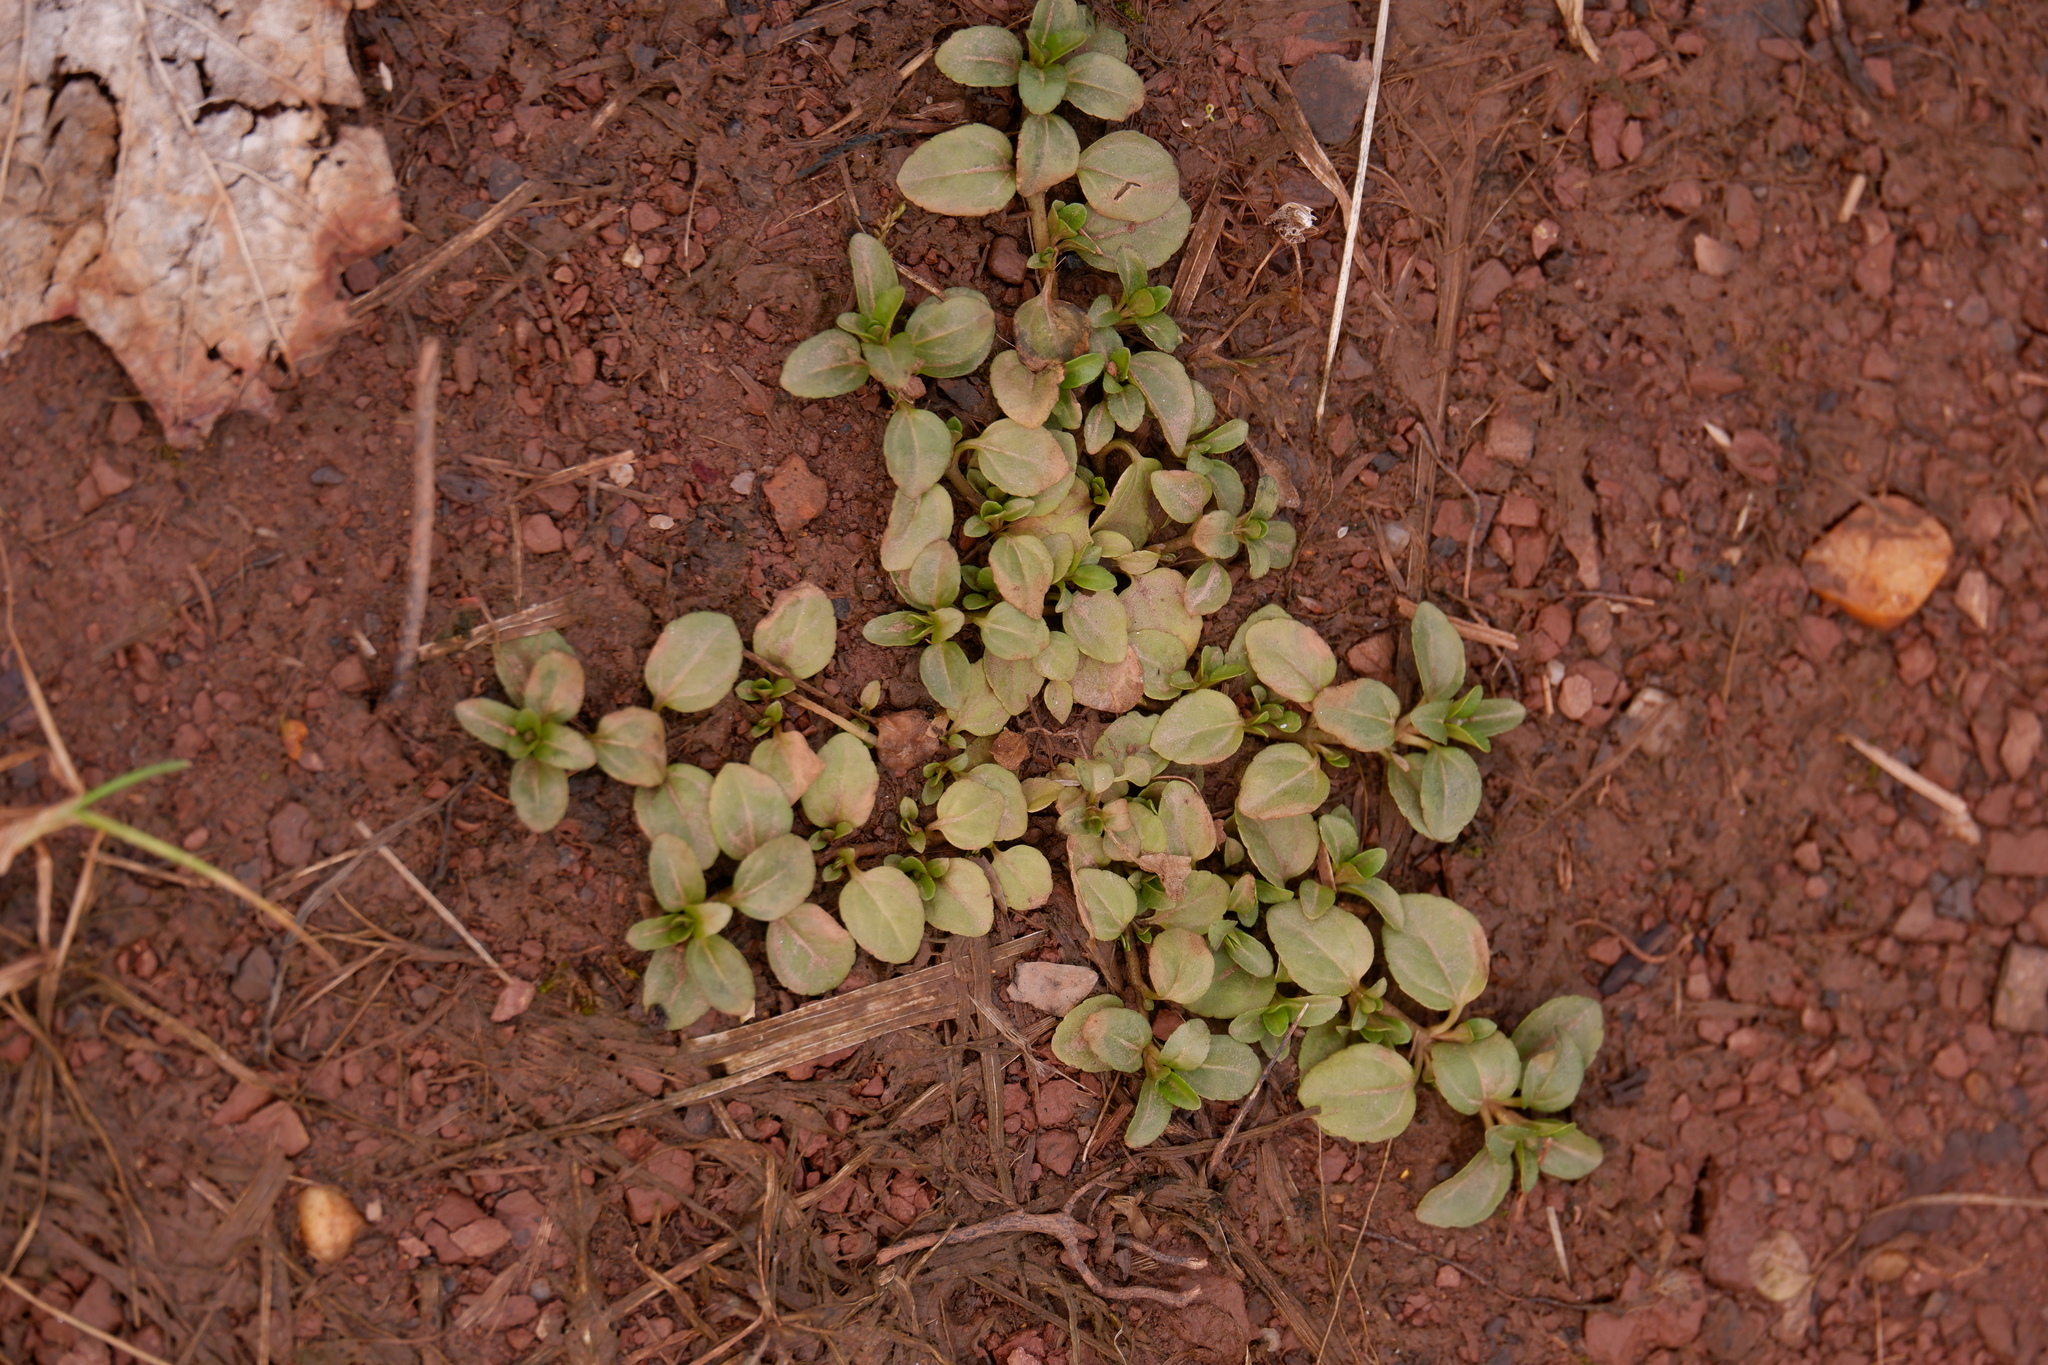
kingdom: Plantae
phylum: Tracheophyta
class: Magnoliopsida
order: Lamiales
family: Plantaginaceae
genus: Veronica
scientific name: Veronica serpyllifolia
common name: Thyme-leaved speedwell
